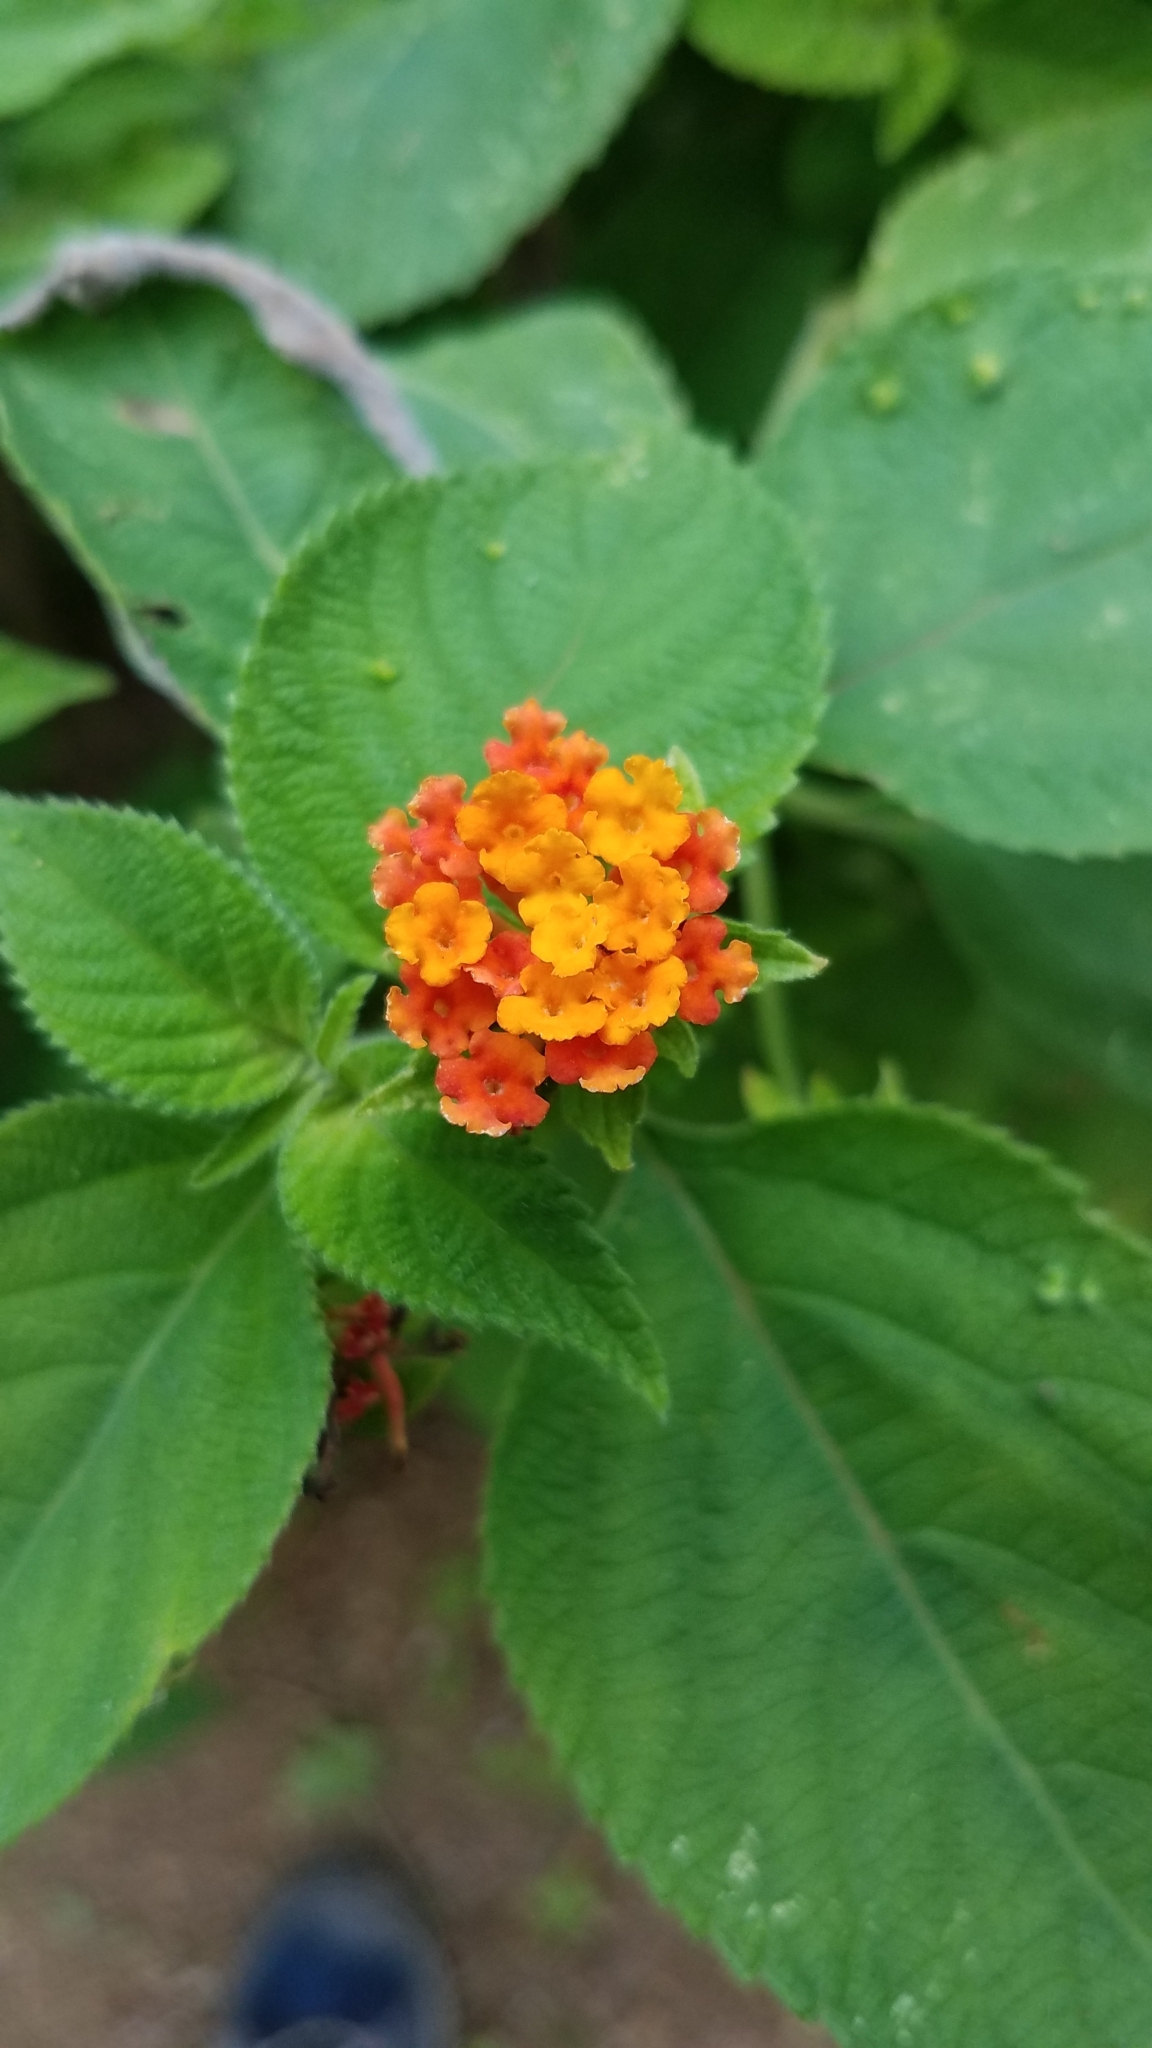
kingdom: Plantae
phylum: Tracheophyta
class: Magnoliopsida
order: Lamiales
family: Verbenaceae
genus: Lantana
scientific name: Lantana camara
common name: Lantana
